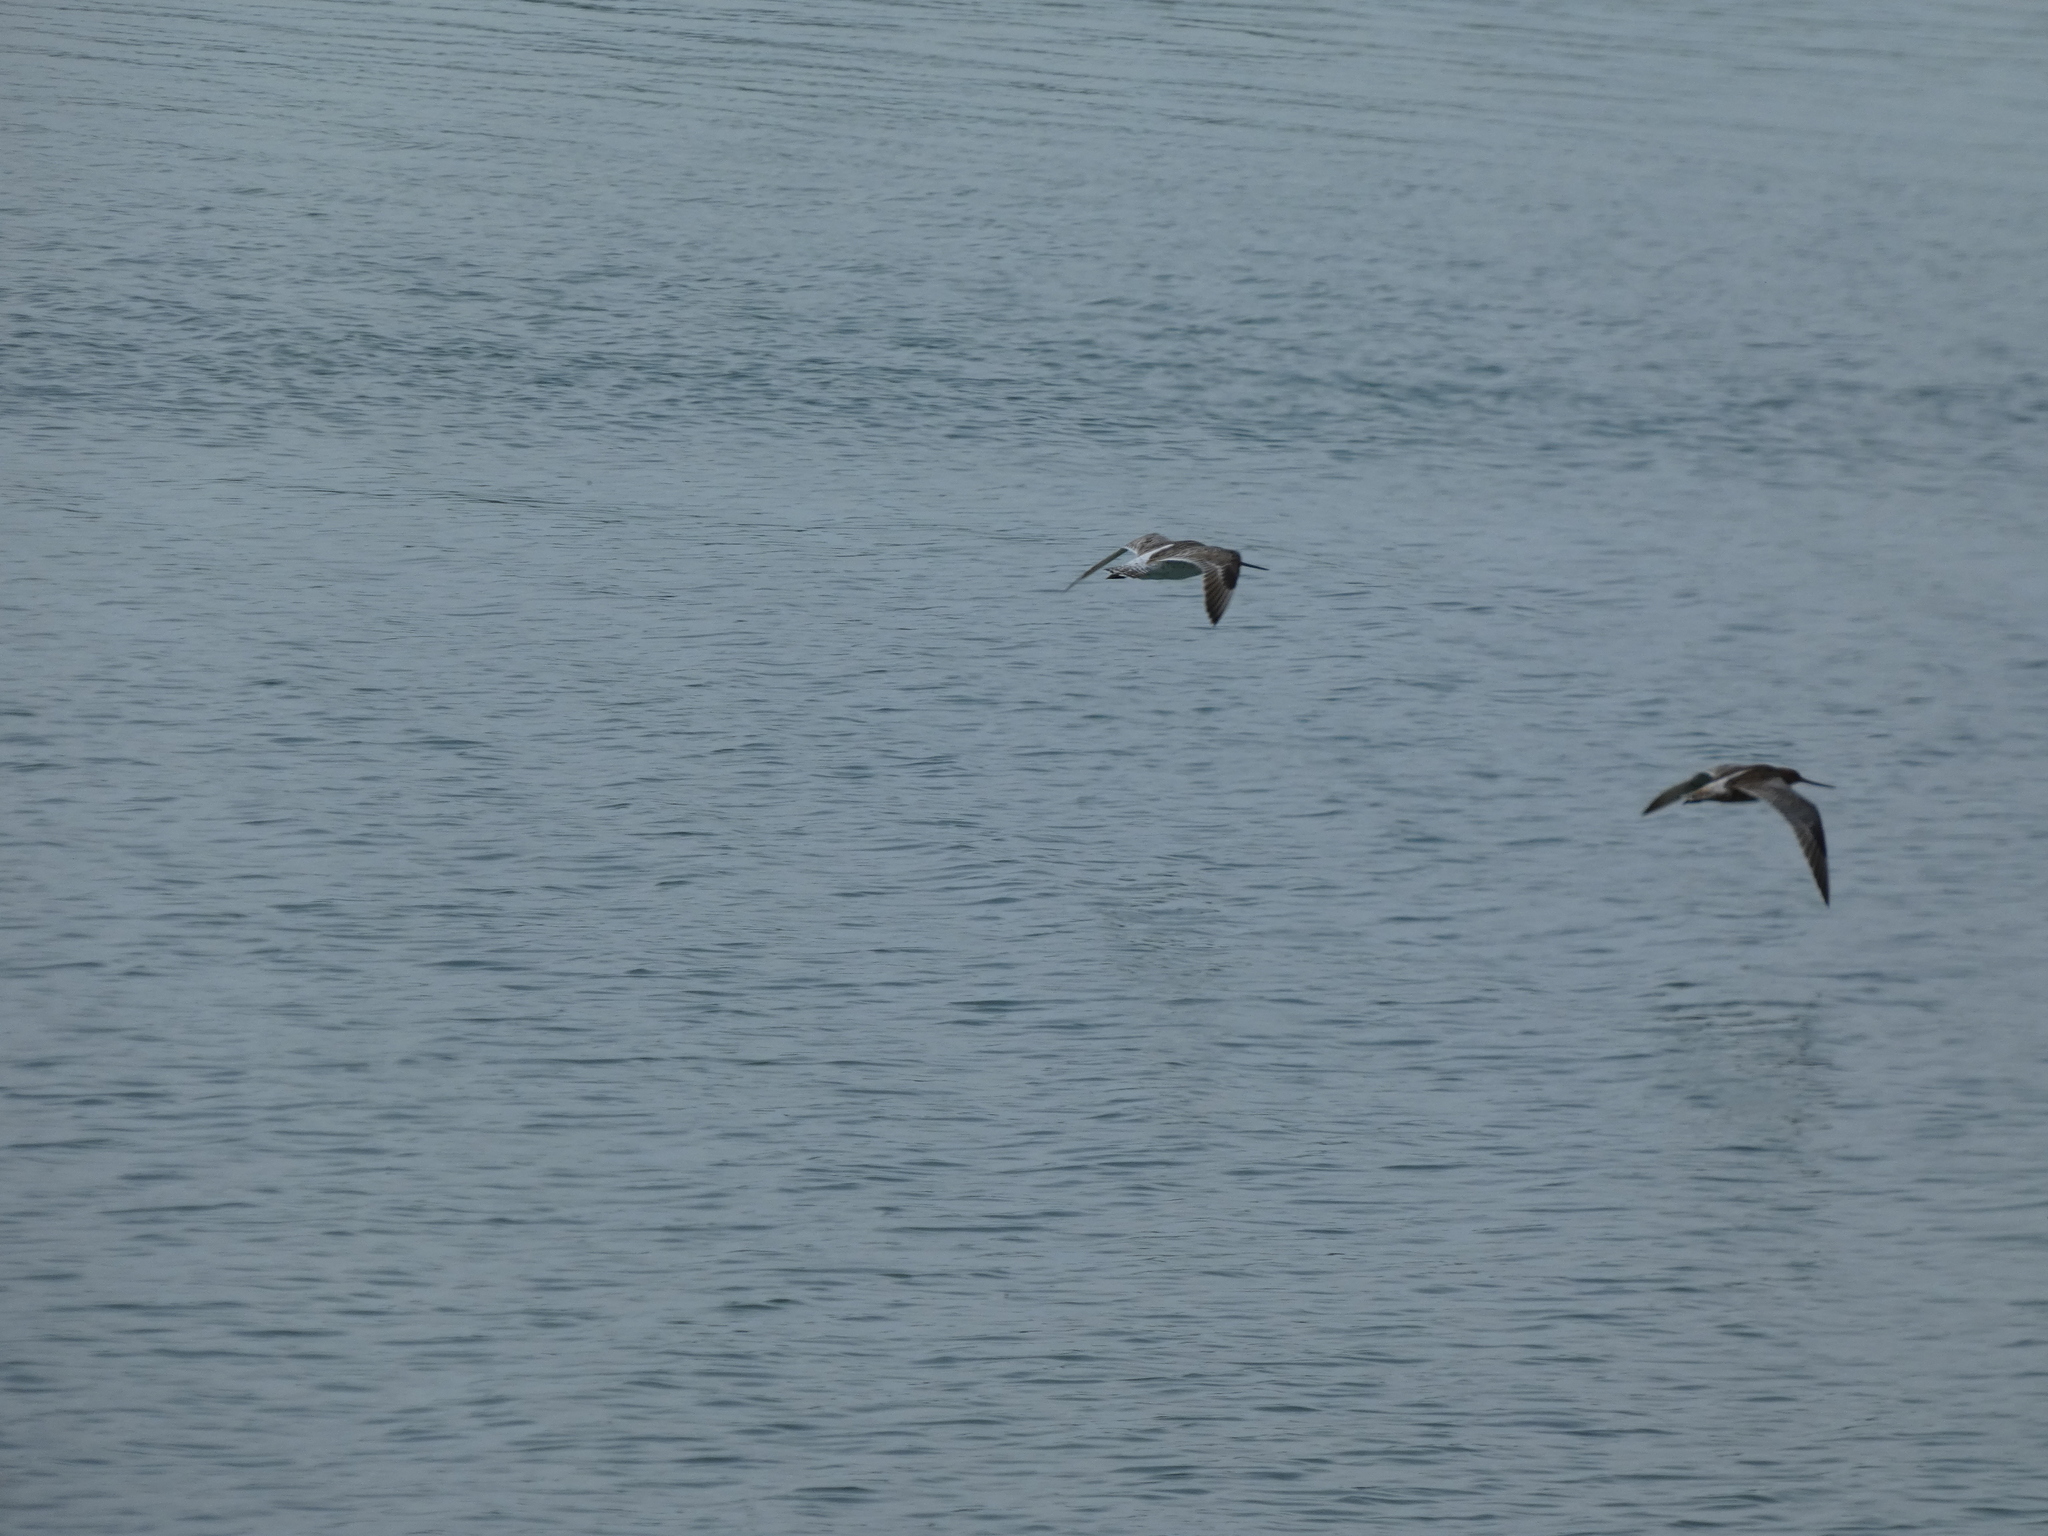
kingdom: Animalia
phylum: Chordata
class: Aves
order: Charadriiformes
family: Scolopacidae
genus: Limosa
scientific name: Limosa lapponica
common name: Bar-tailed godwit
